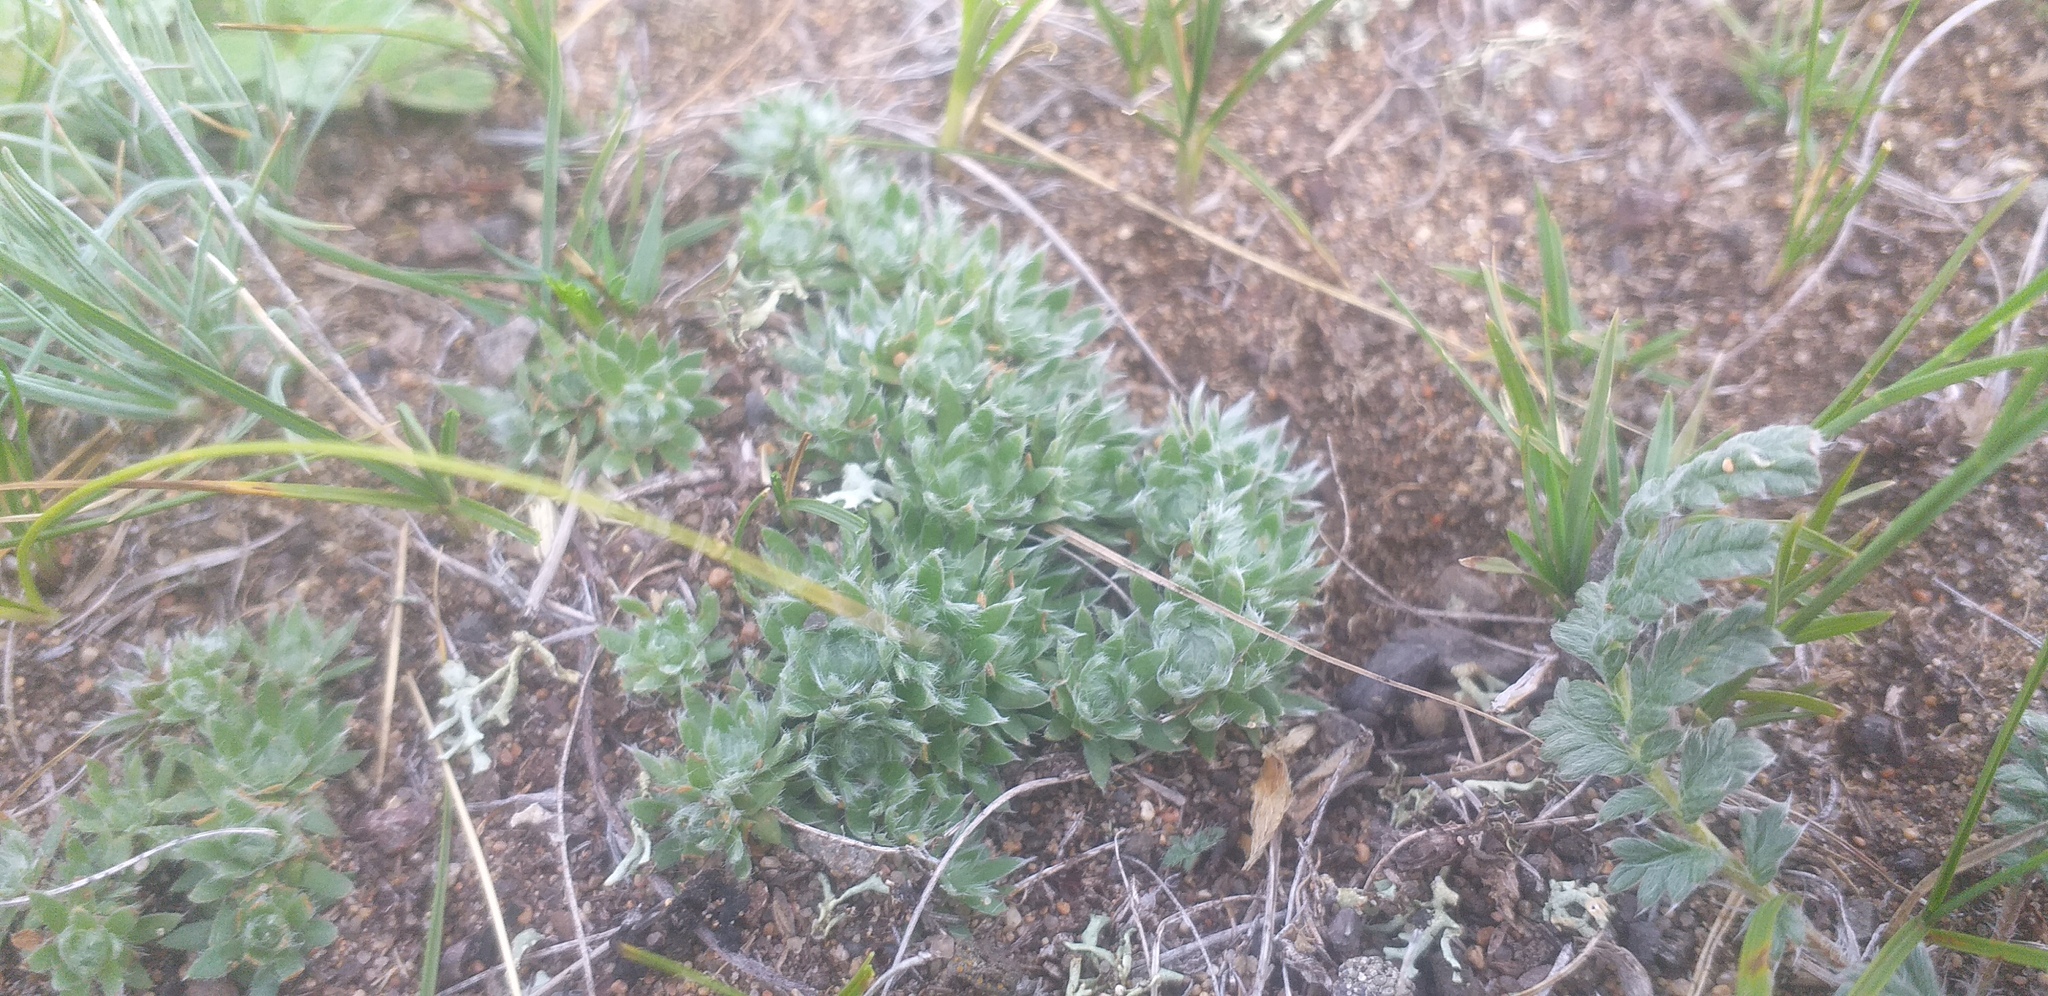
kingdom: Plantae
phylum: Tracheophyta
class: Magnoliopsida
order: Ericales
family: Primulaceae
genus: Androsace
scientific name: Androsace incana
